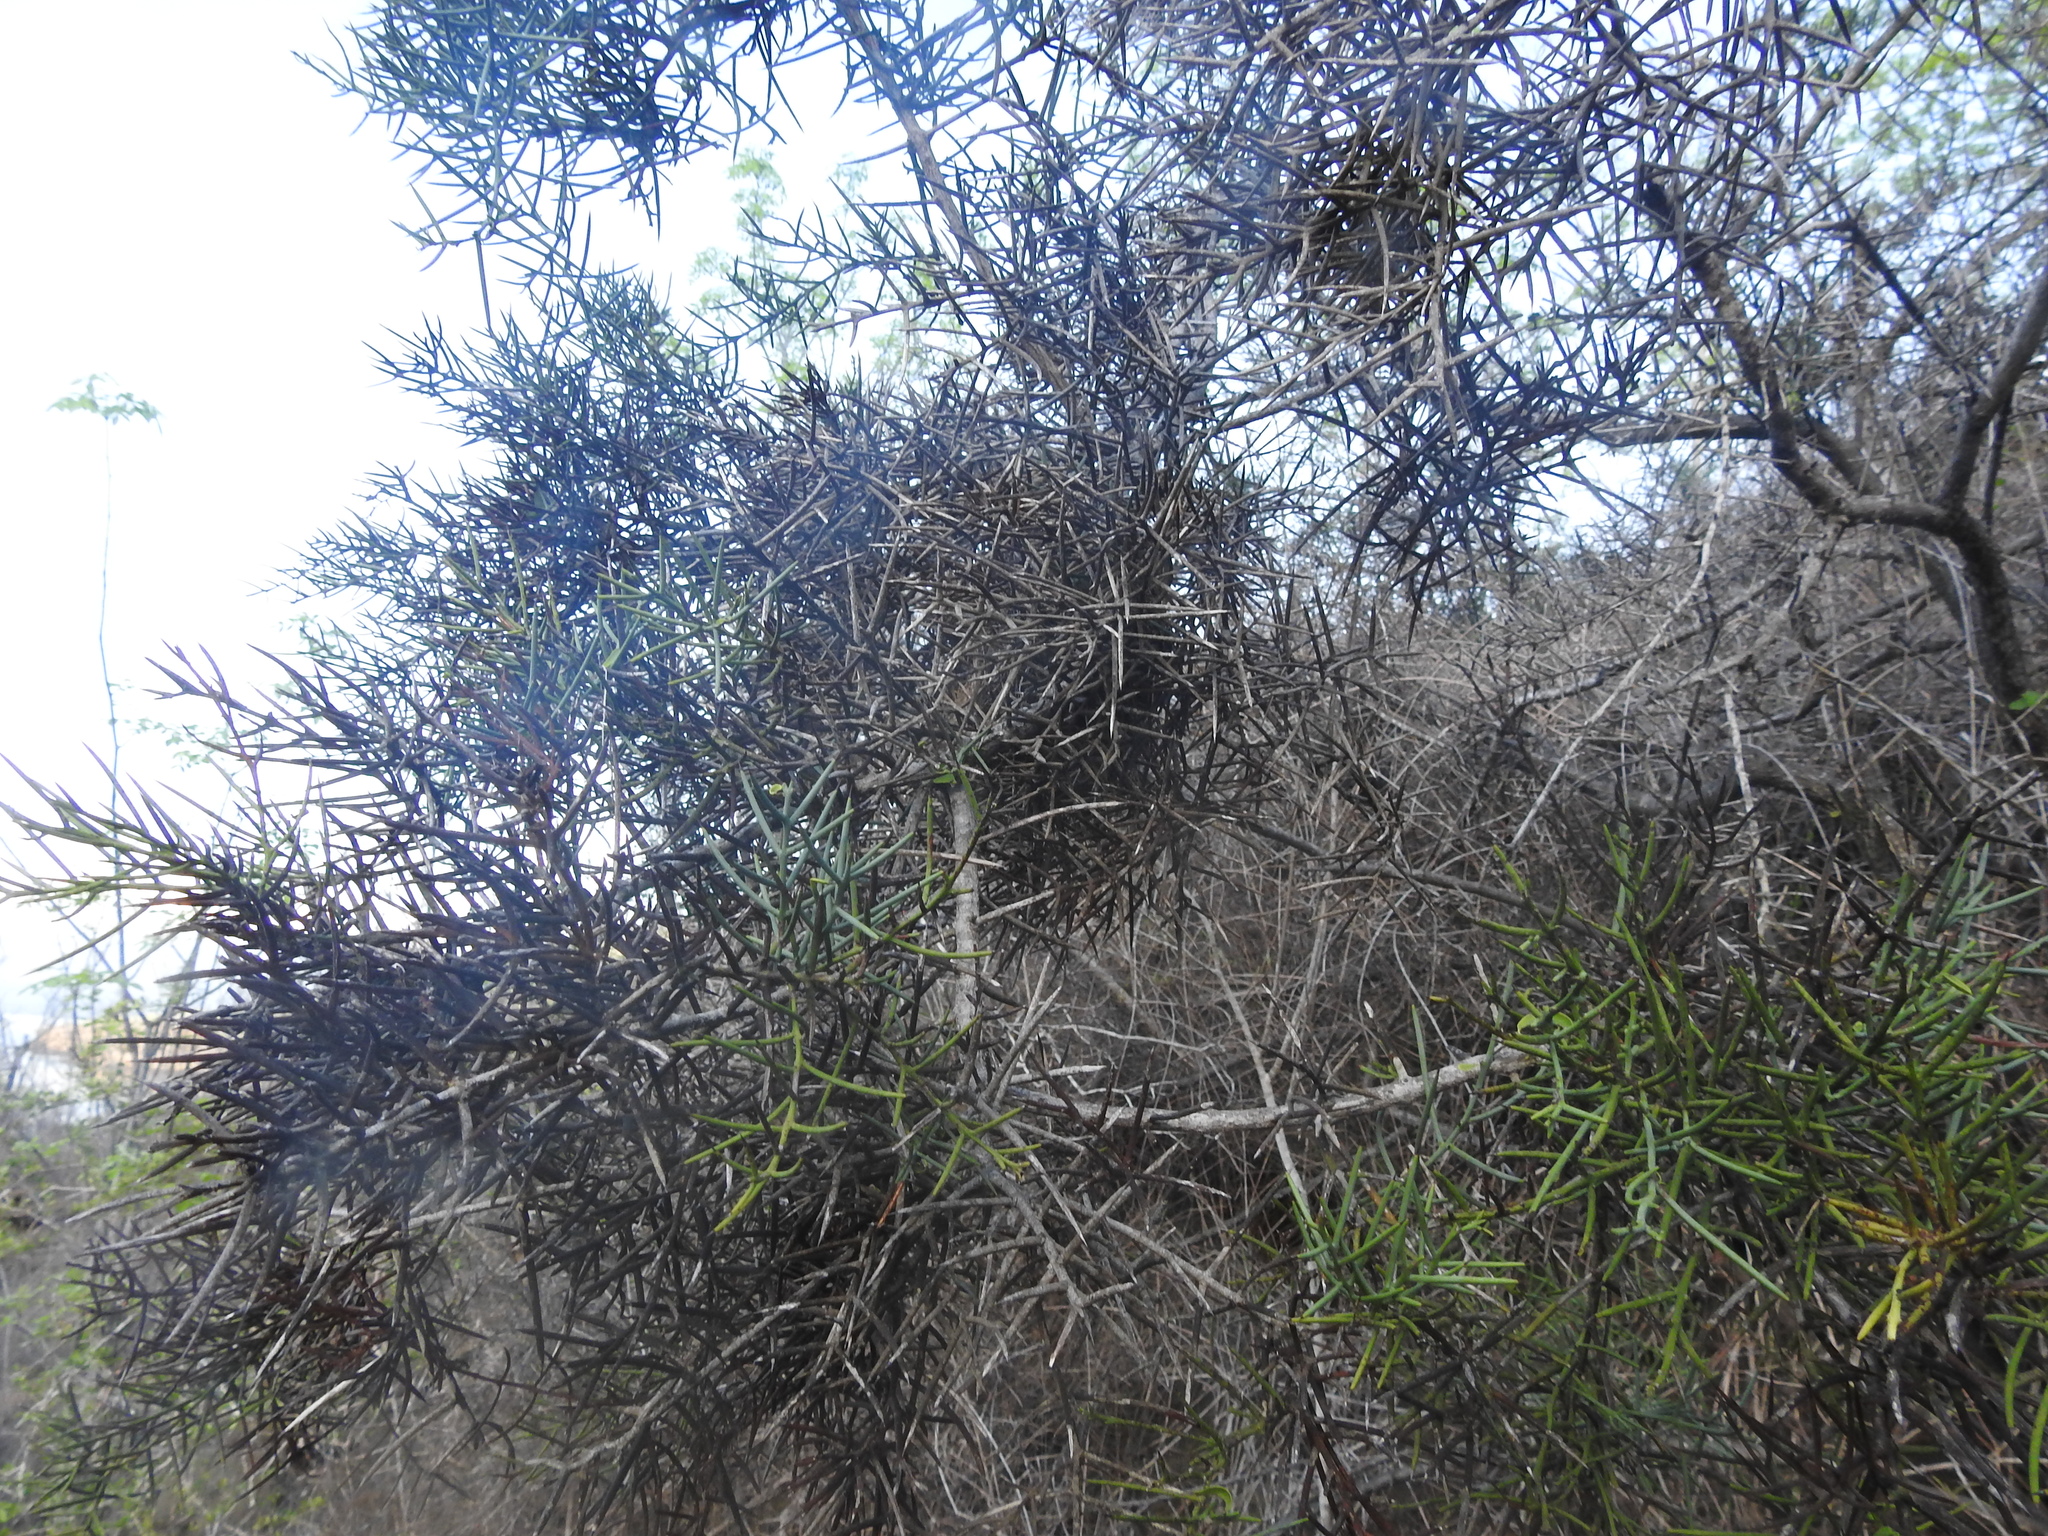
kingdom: Plantae
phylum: Tracheophyta
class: Magnoliopsida
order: Rosales
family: Rhamnaceae
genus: Scutia
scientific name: Scutia spicata
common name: Spiny bush
